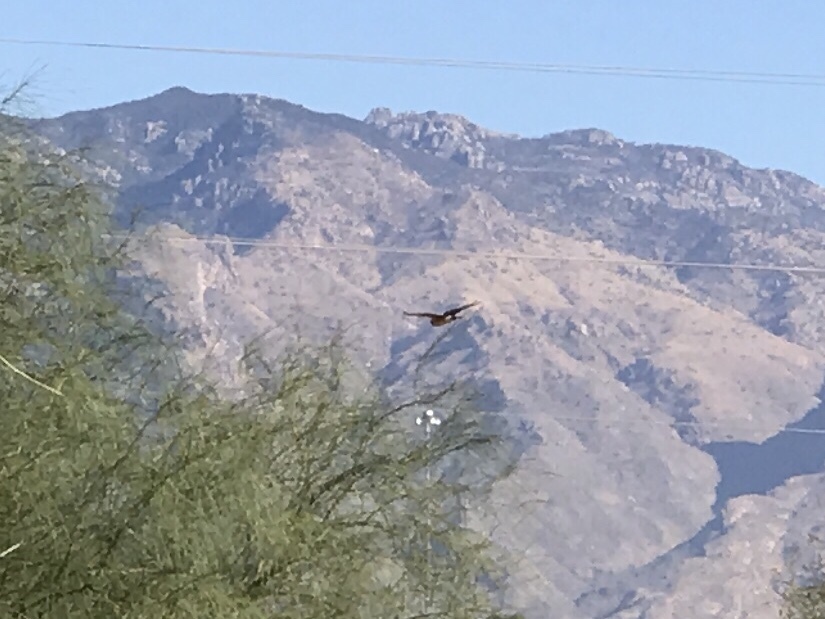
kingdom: Animalia
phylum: Chordata
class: Aves
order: Accipitriformes
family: Accipitridae
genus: Circus
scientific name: Circus cyaneus
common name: Hen harrier
